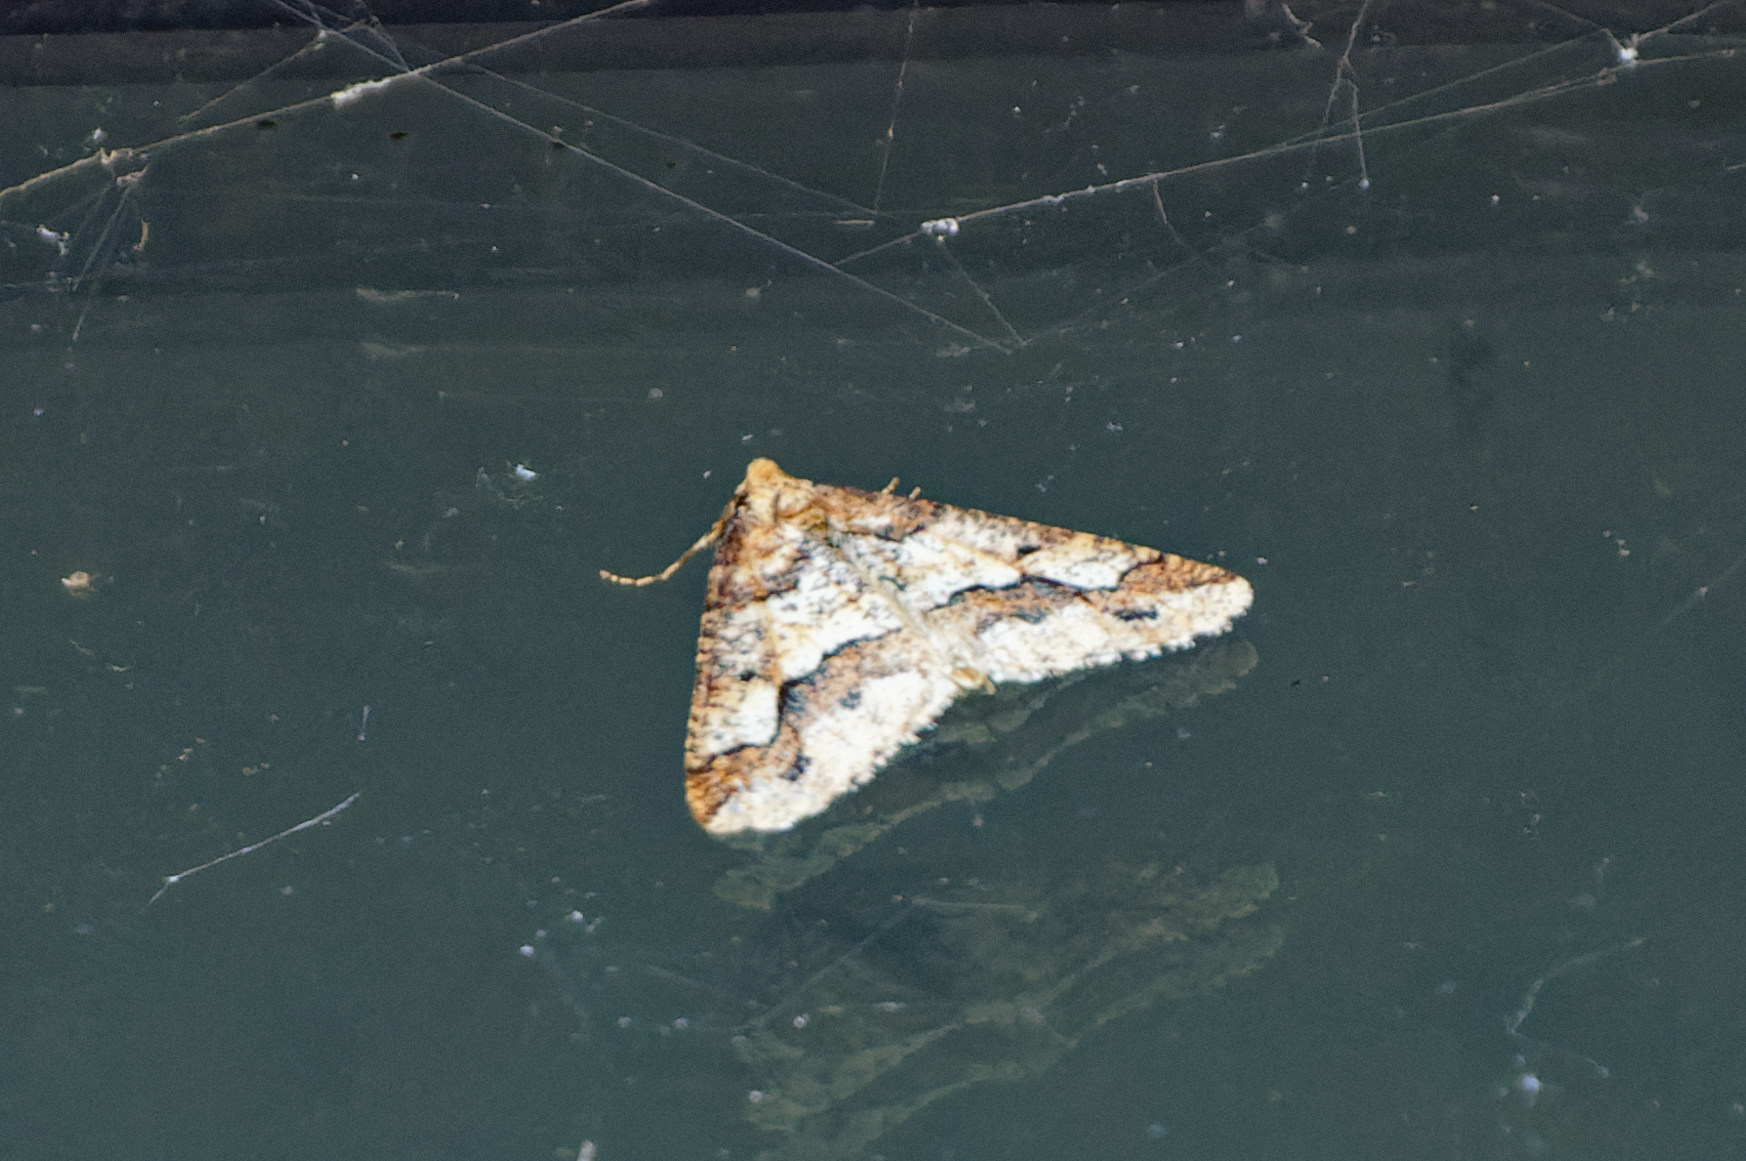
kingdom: Animalia
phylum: Arthropoda
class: Insecta
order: Lepidoptera
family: Geometridae
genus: Erannis
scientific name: Erannis defoliaria
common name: Mottled umber
